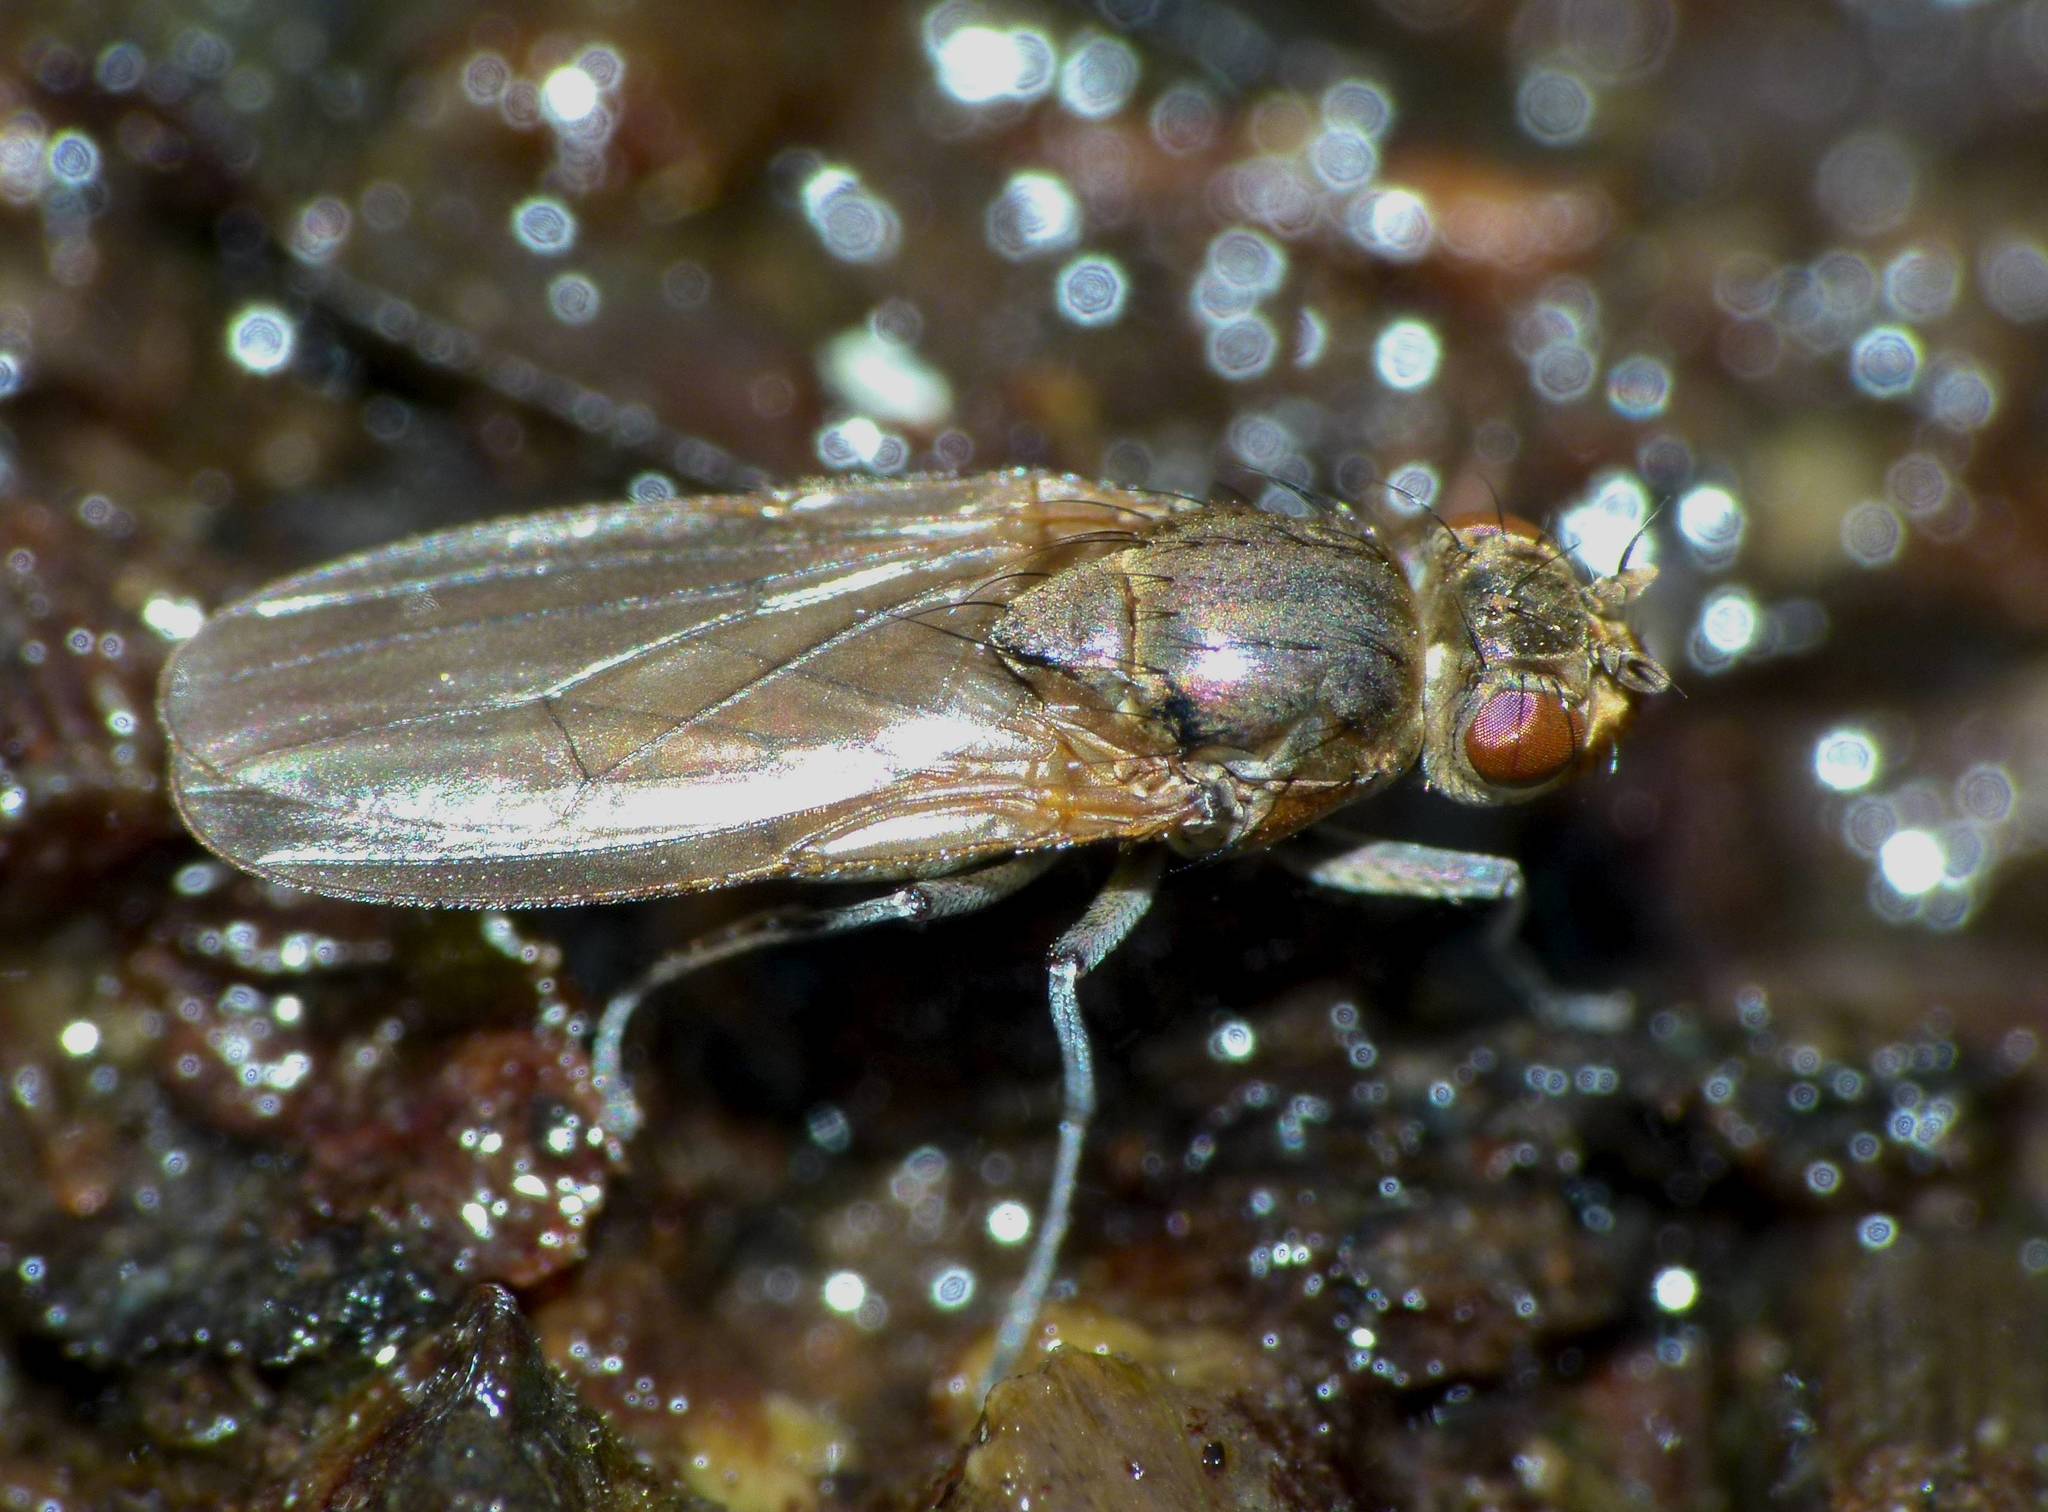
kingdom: Animalia
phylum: Arthropoda
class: Insecta
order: Diptera
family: Ephydridae
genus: Ephydrella
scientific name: Ephydrella assimilis
